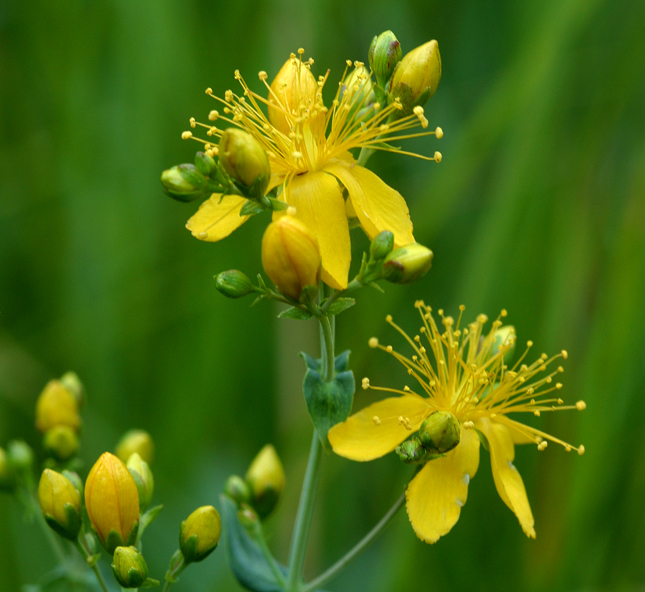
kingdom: Plantae
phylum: Tracheophyta
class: Magnoliopsida
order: Malpighiales
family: Hypericaceae
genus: Hypericum
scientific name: Hypericum scouleri
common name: Scouler's st. john's-wort
